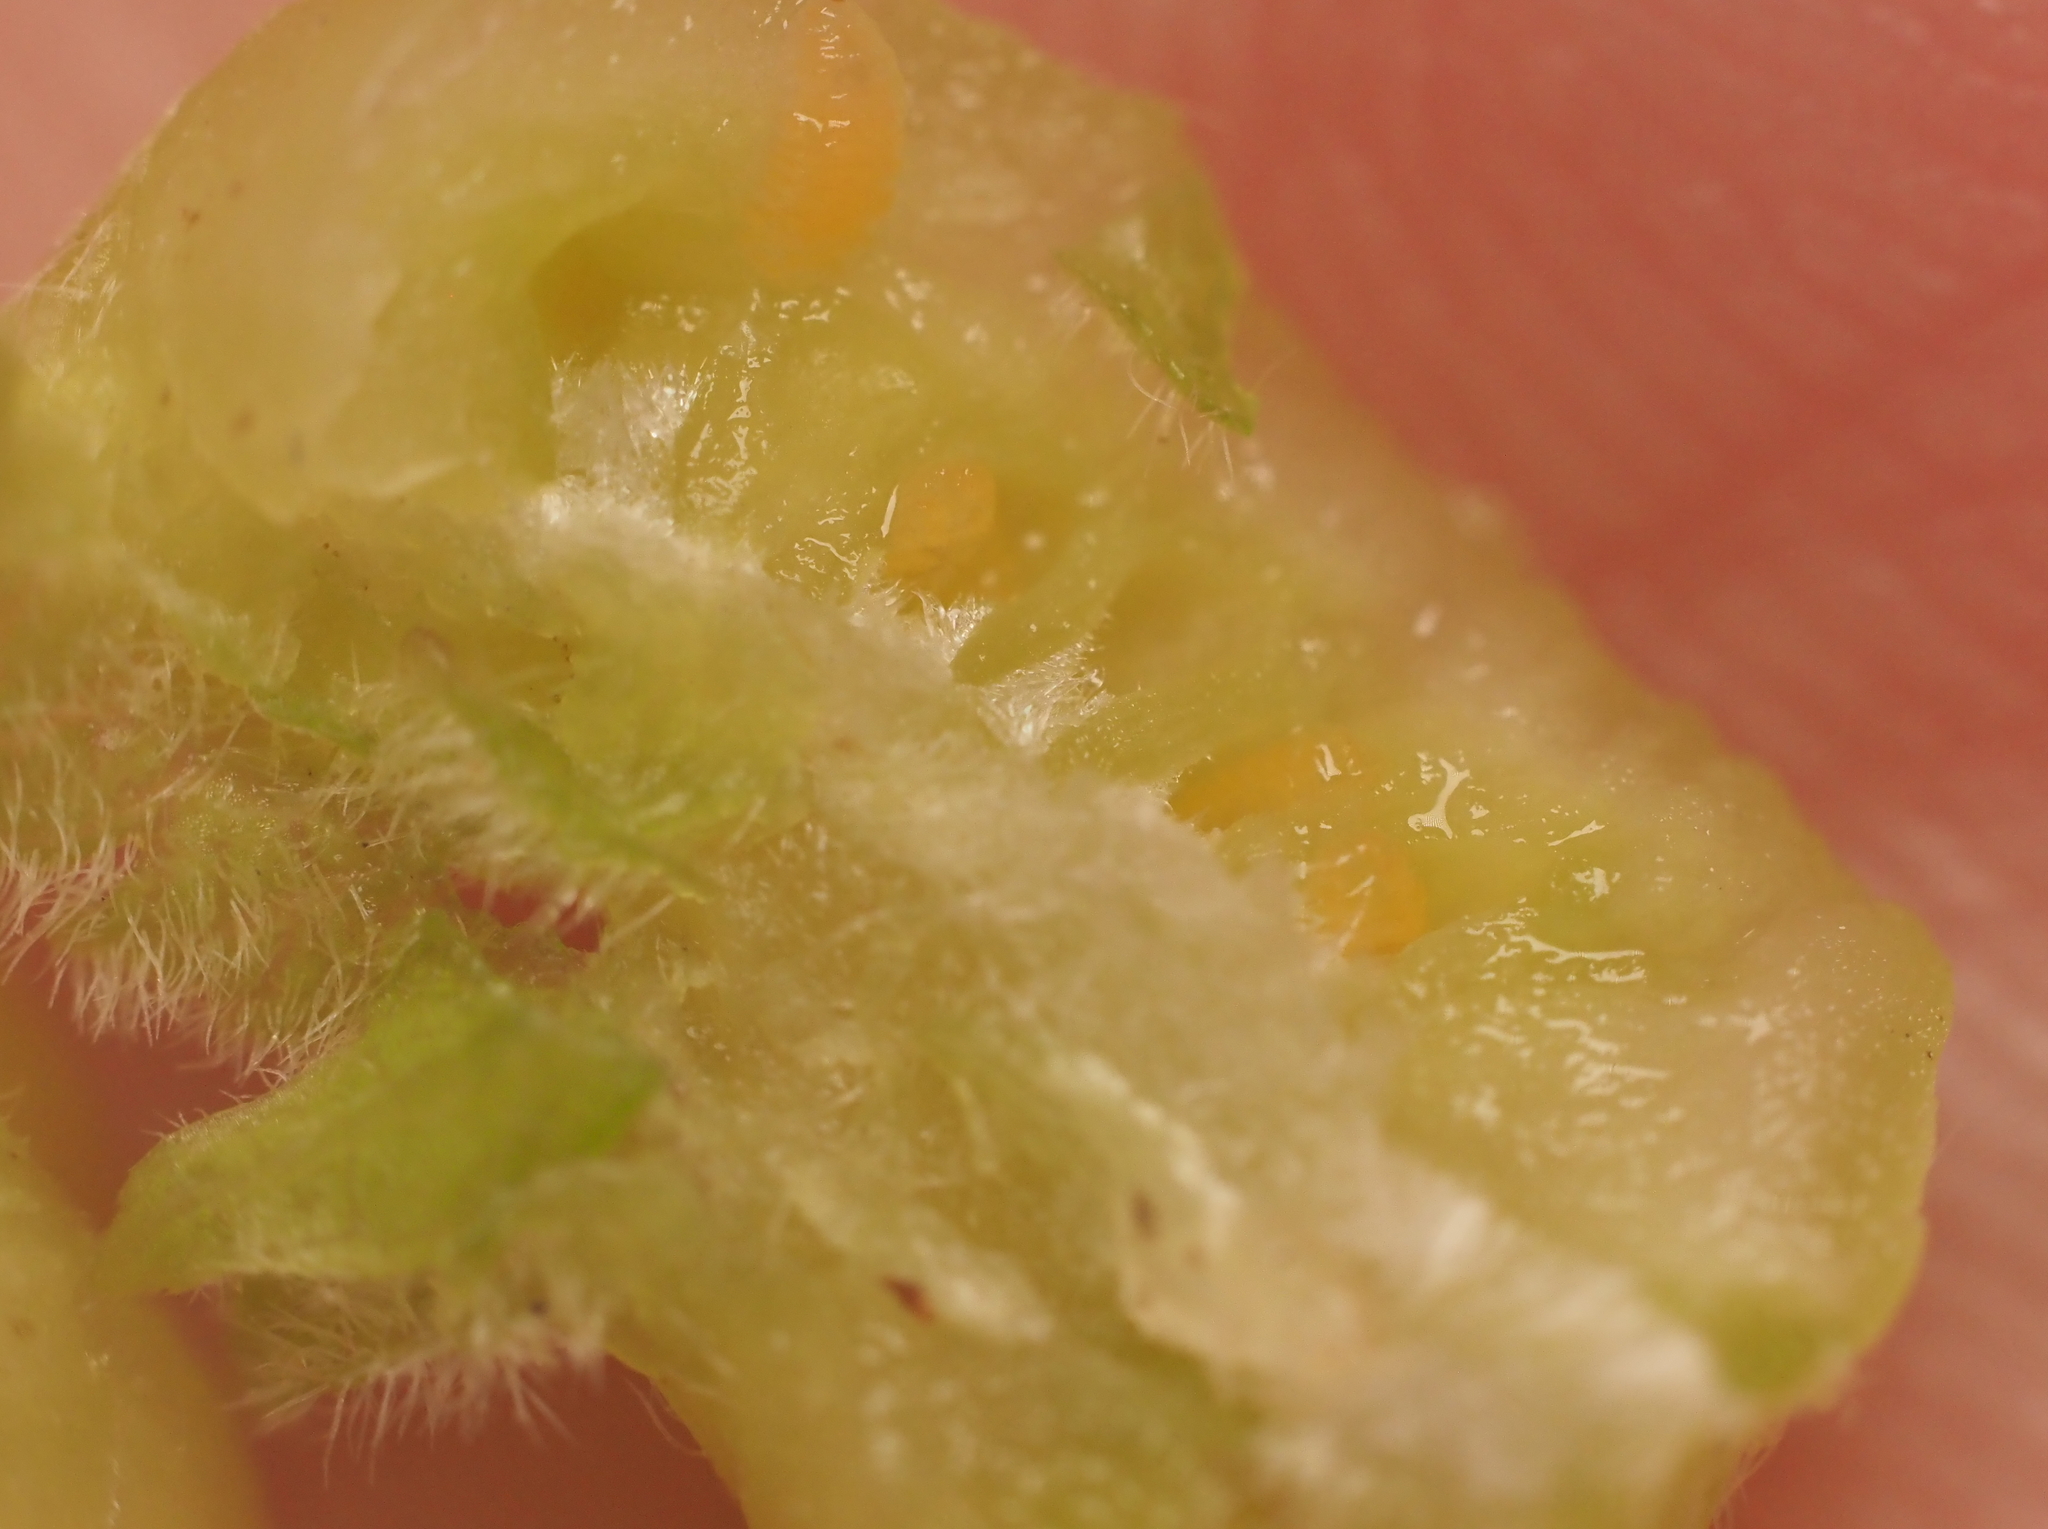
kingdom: Animalia
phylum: Arthropoda
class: Insecta
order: Diptera
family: Cecidomyiidae
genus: Contarinia
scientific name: Contarinia negundinis
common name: Boxelder budgall midge
